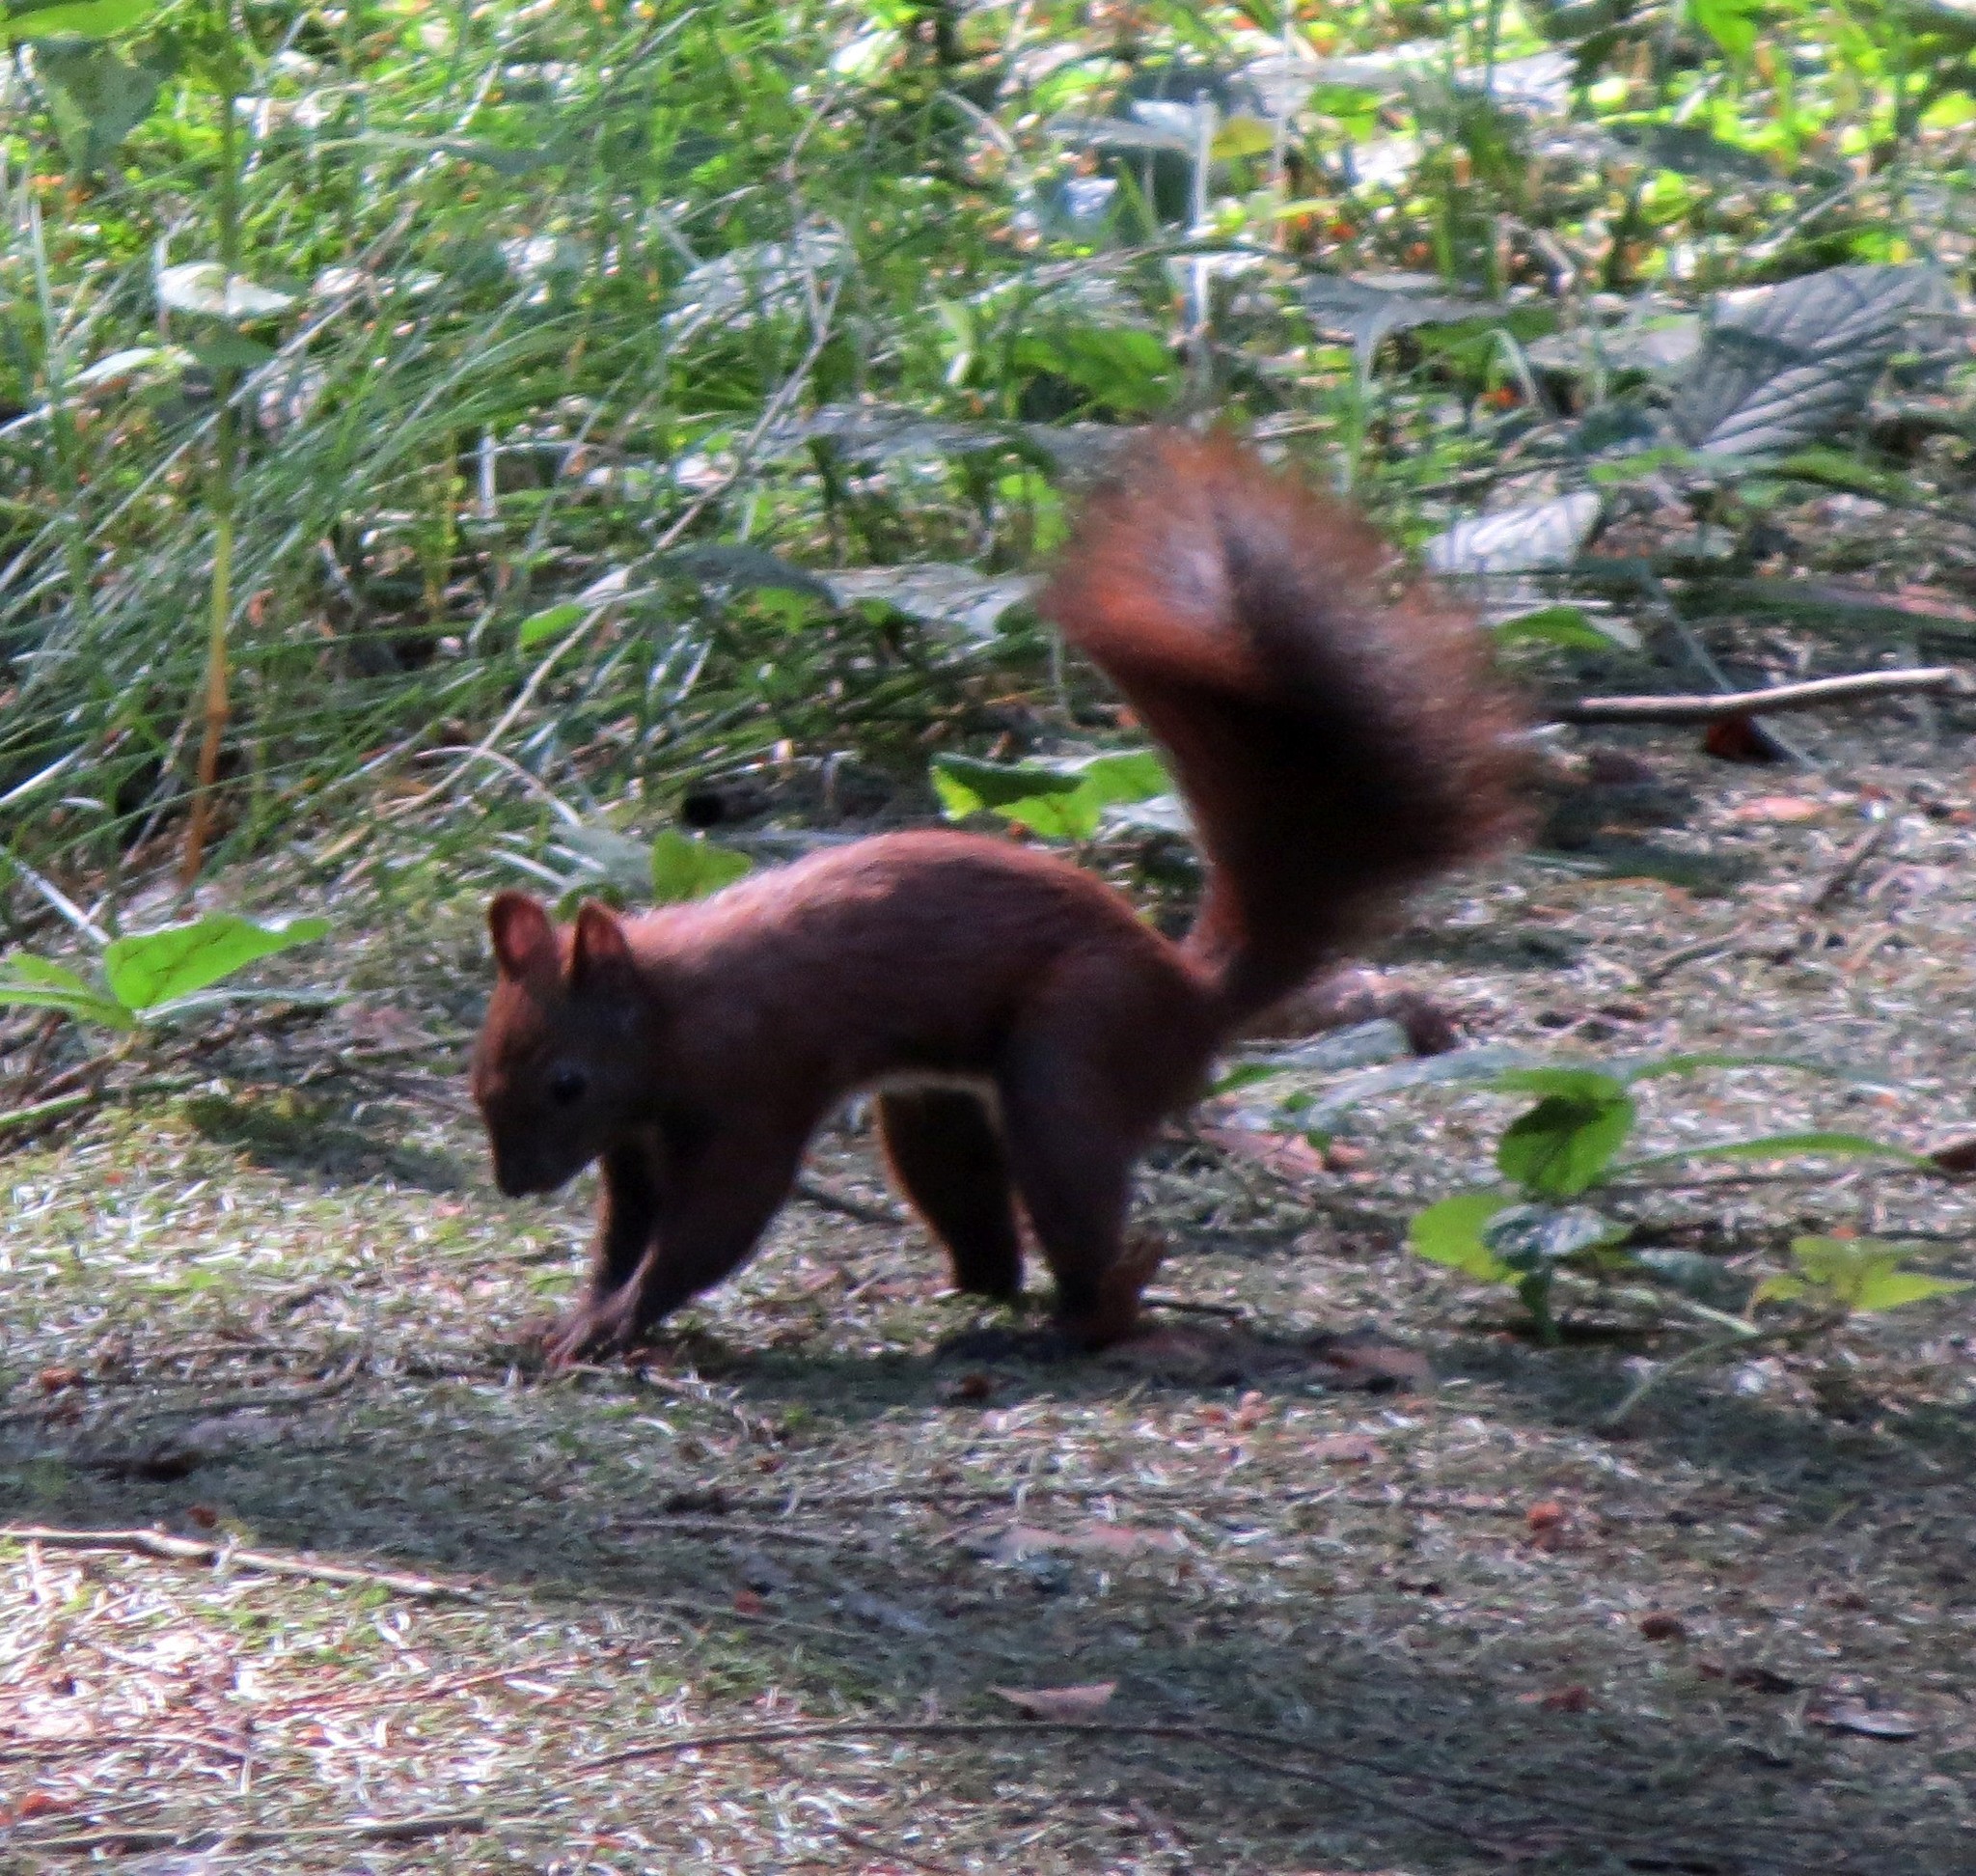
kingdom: Animalia
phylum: Chordata
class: Mammalia
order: Rodentia
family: Sciuridae
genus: Sciurus
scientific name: Sciurus vulgaris
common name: Eurasian red squirrel
